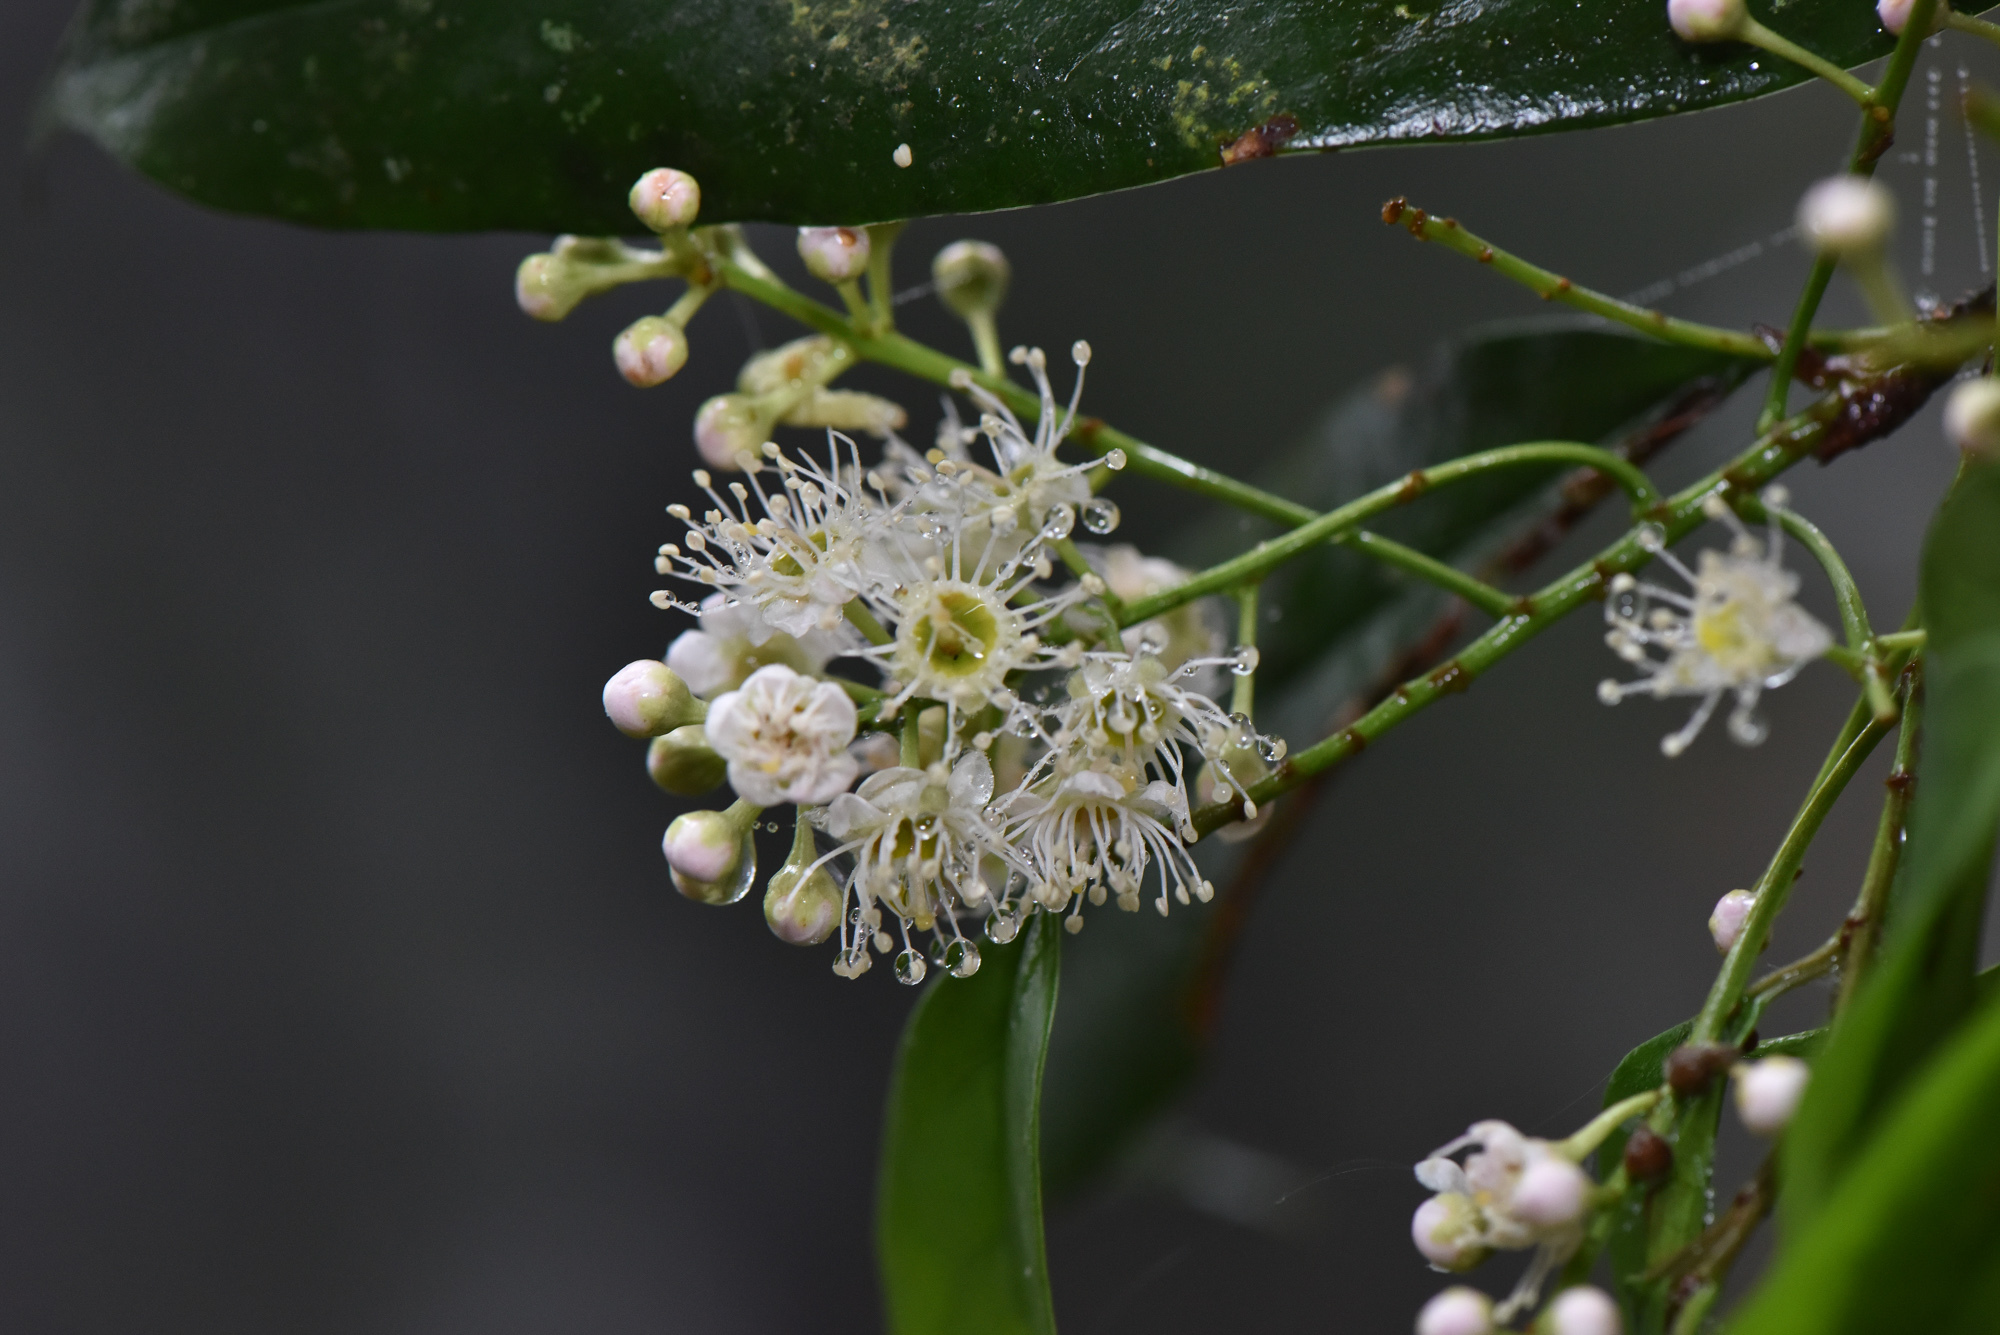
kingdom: Plantae
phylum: Tracheophyta
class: Magnoliopsida
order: Rosales
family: Rosaceae
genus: Prunus
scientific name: Prunus phaeosticta
